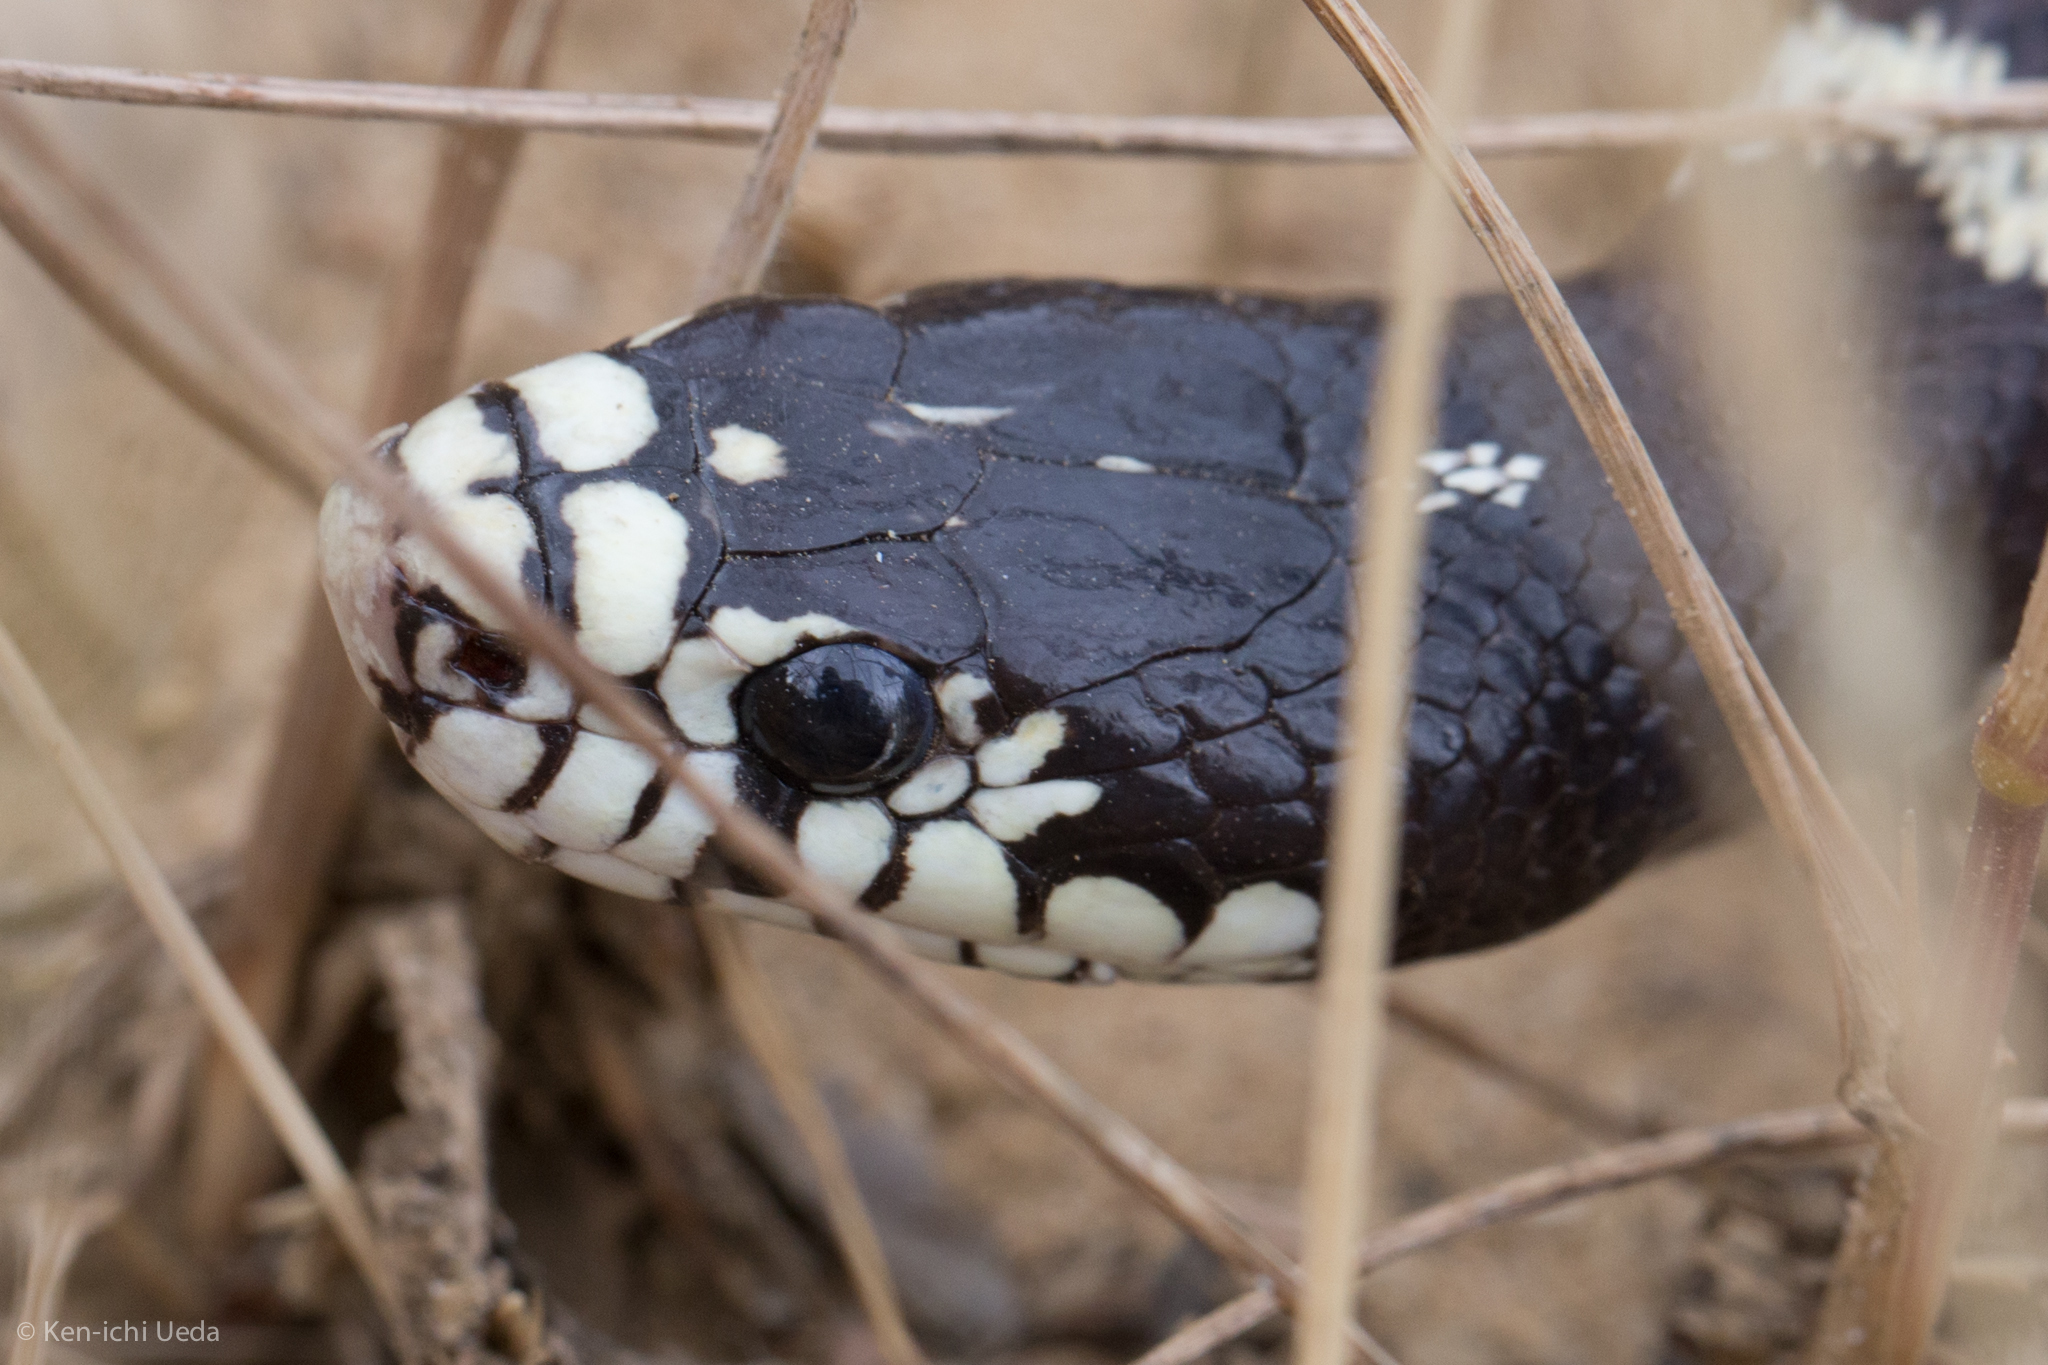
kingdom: Animalia
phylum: Chordata
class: Squamata
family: Colubridae
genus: Lampropeltis
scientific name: Lampropeltis californiae
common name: California kingsnake
